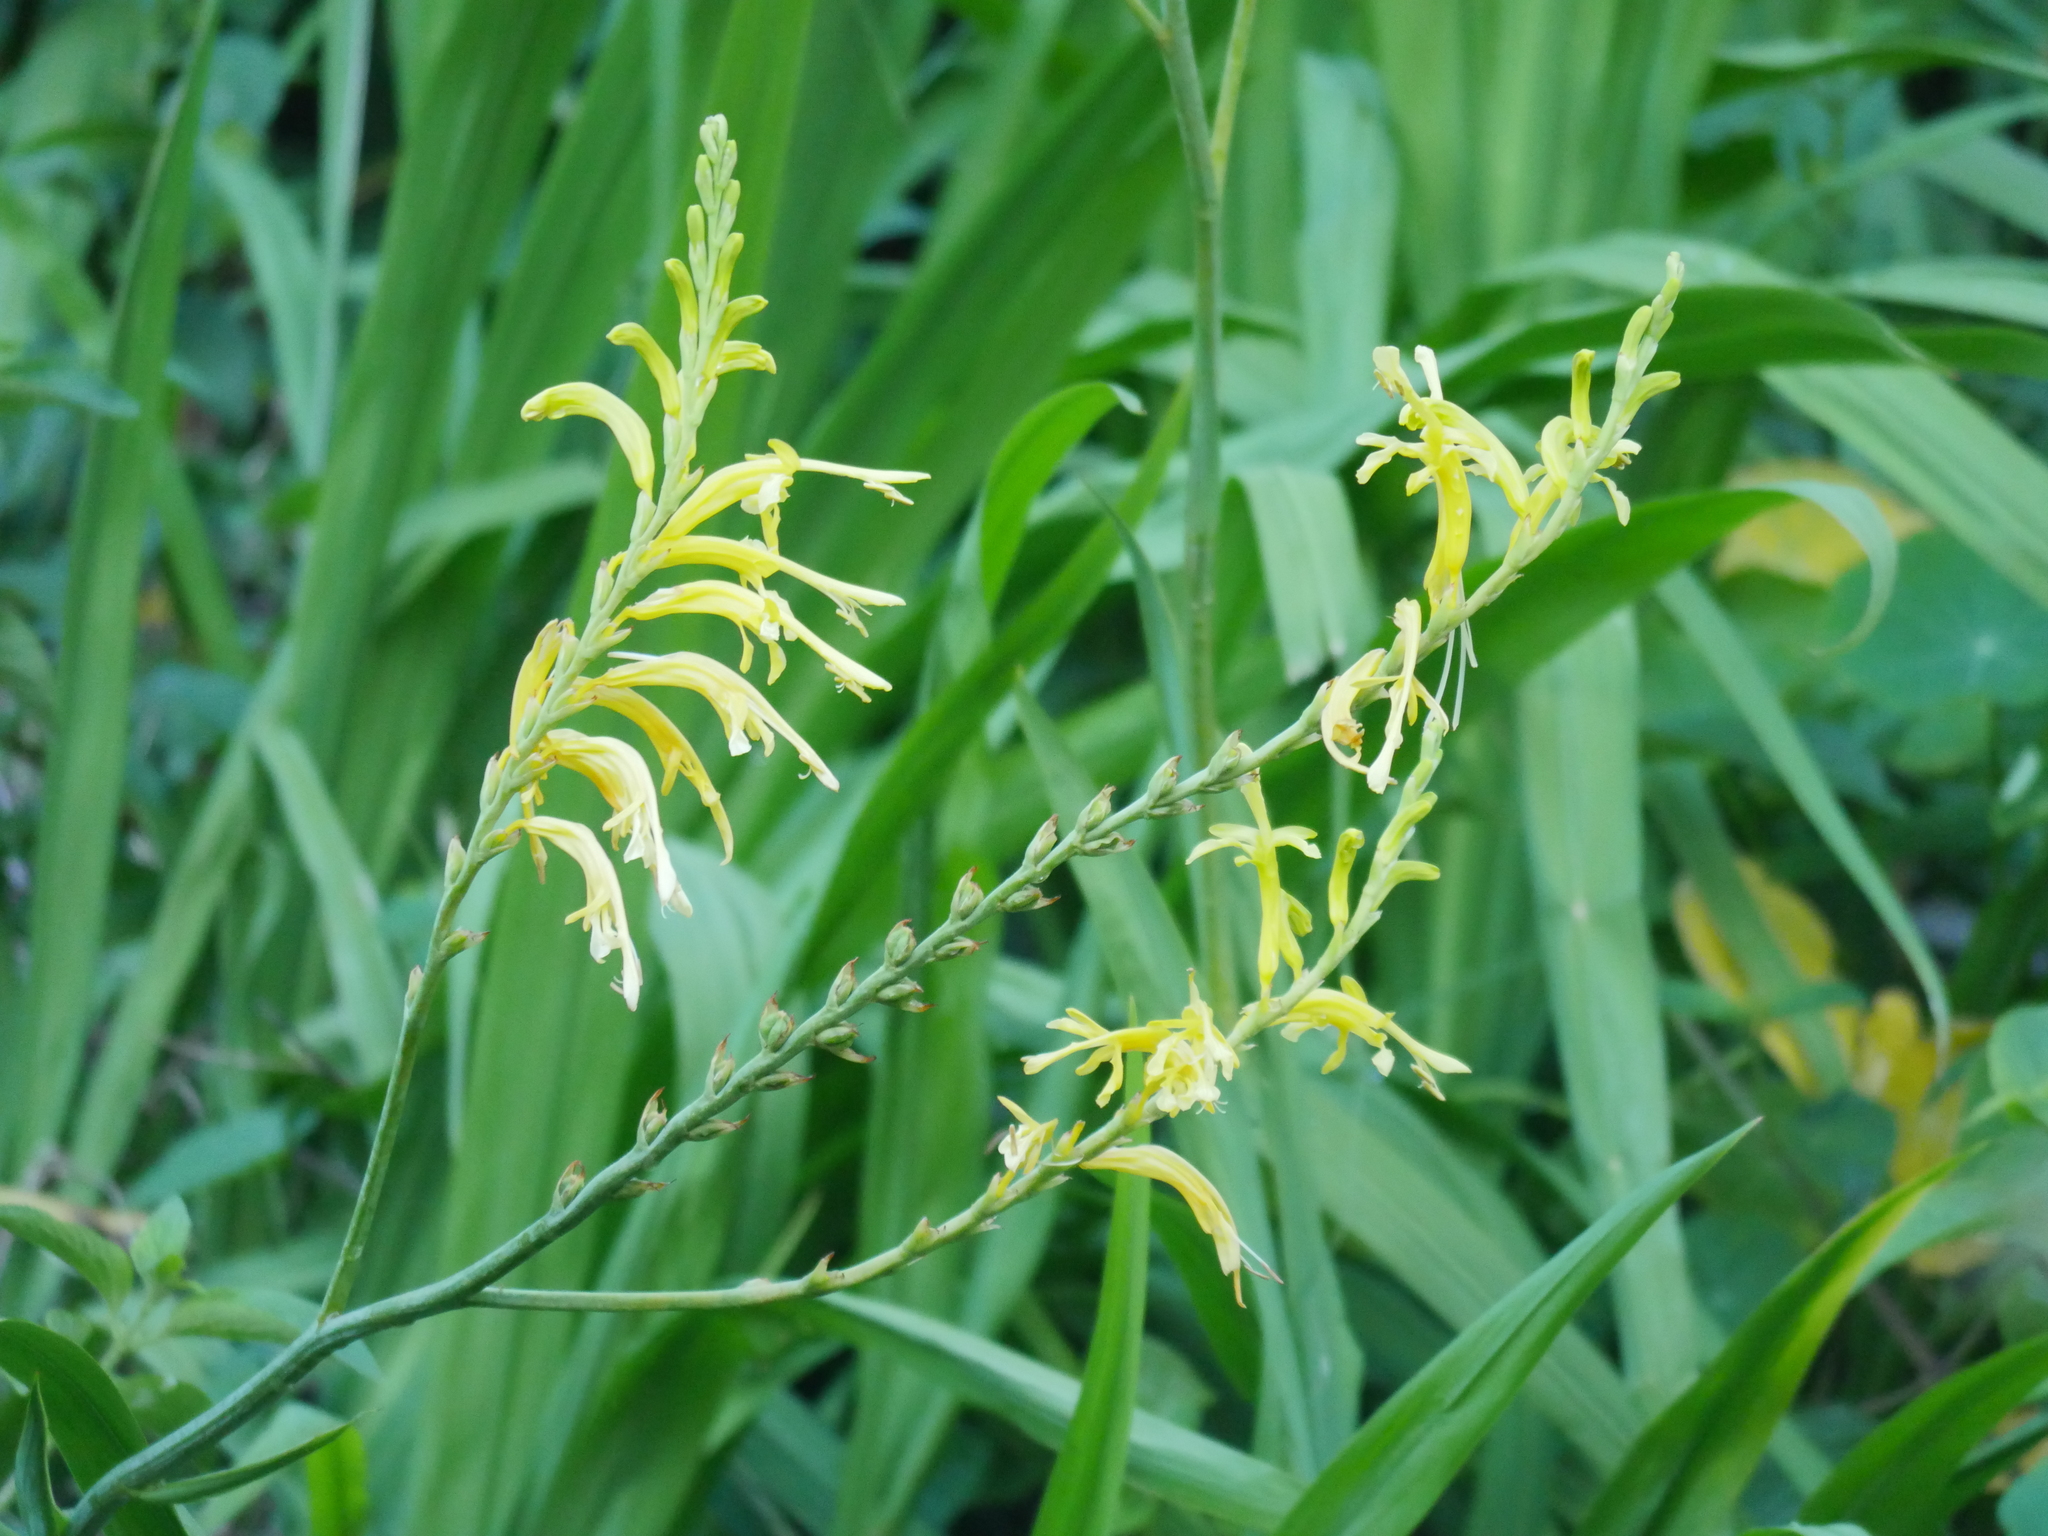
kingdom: Plantae
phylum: Tracheophyta
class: Liliopsida
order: Asparagales
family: Iridaceae
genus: Chasmanthe
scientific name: Chasmanthe floribunda
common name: African cornflag
